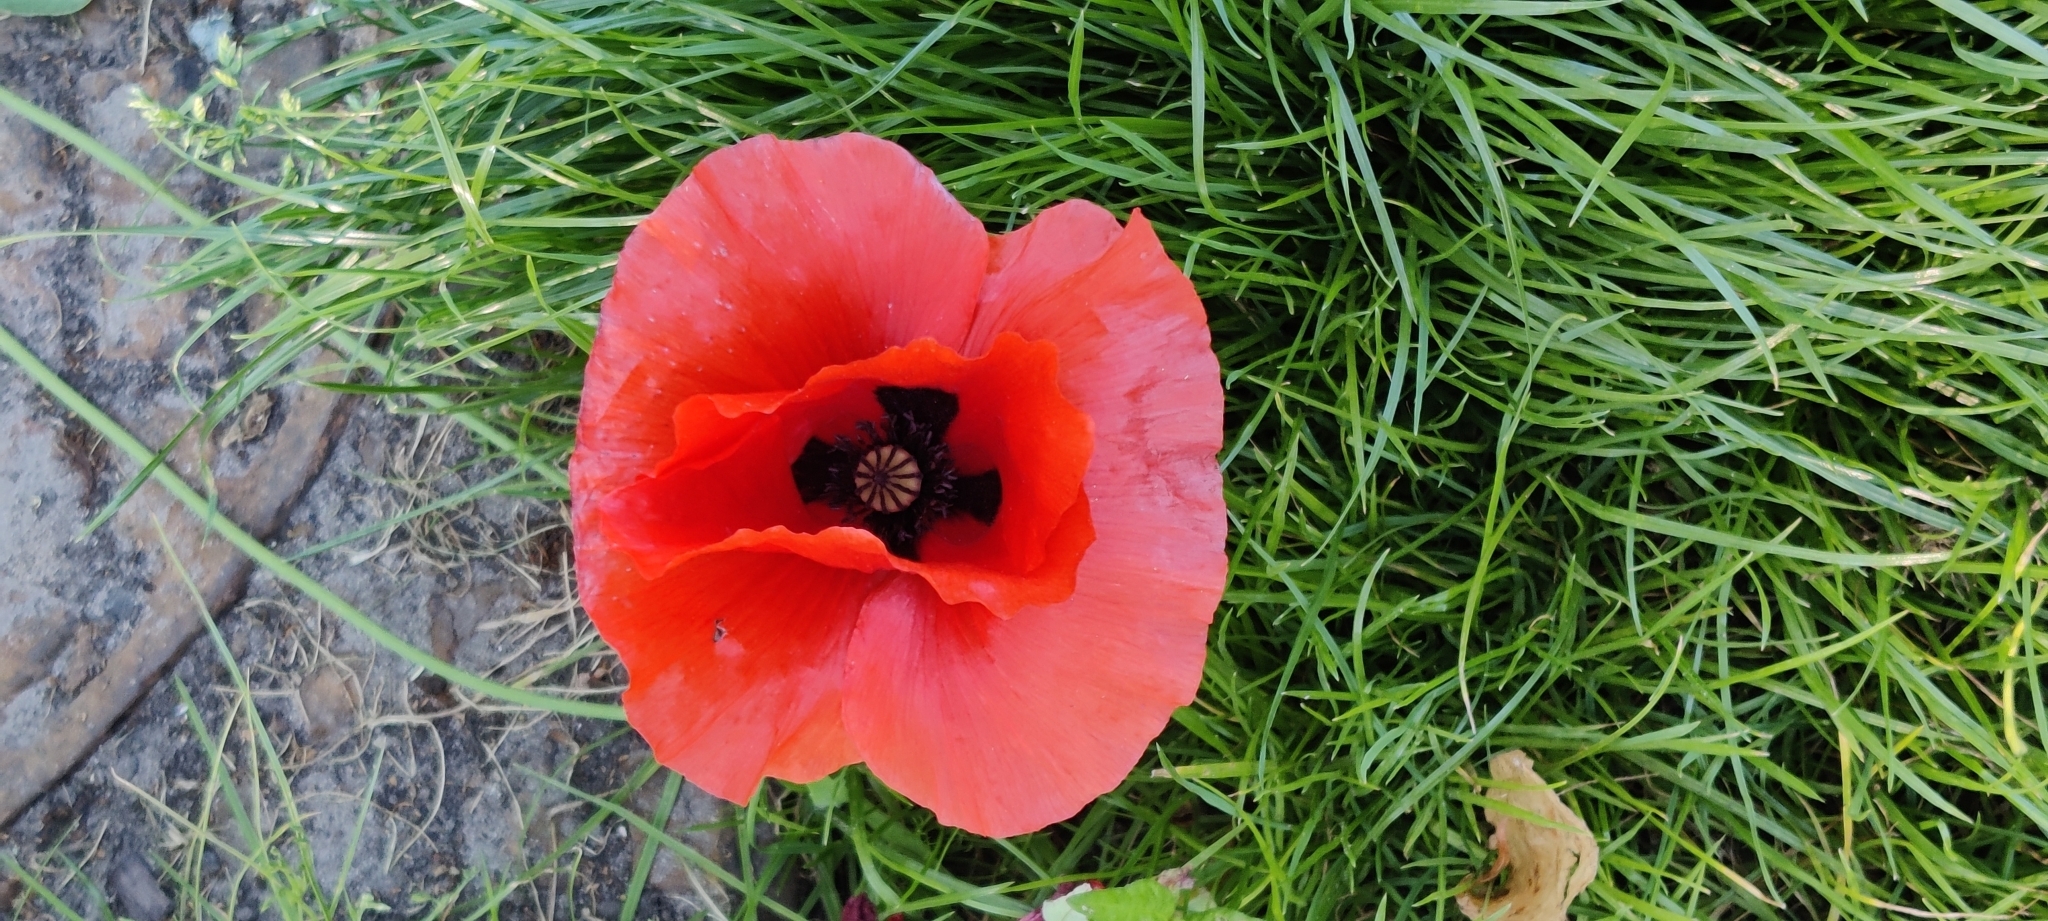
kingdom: Plantae
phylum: Tracheophyta
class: Magnoliopsida
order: Ranunculales
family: Papaveraceae
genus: Papaver
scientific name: Papaver rhoeas
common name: Corn poppy
